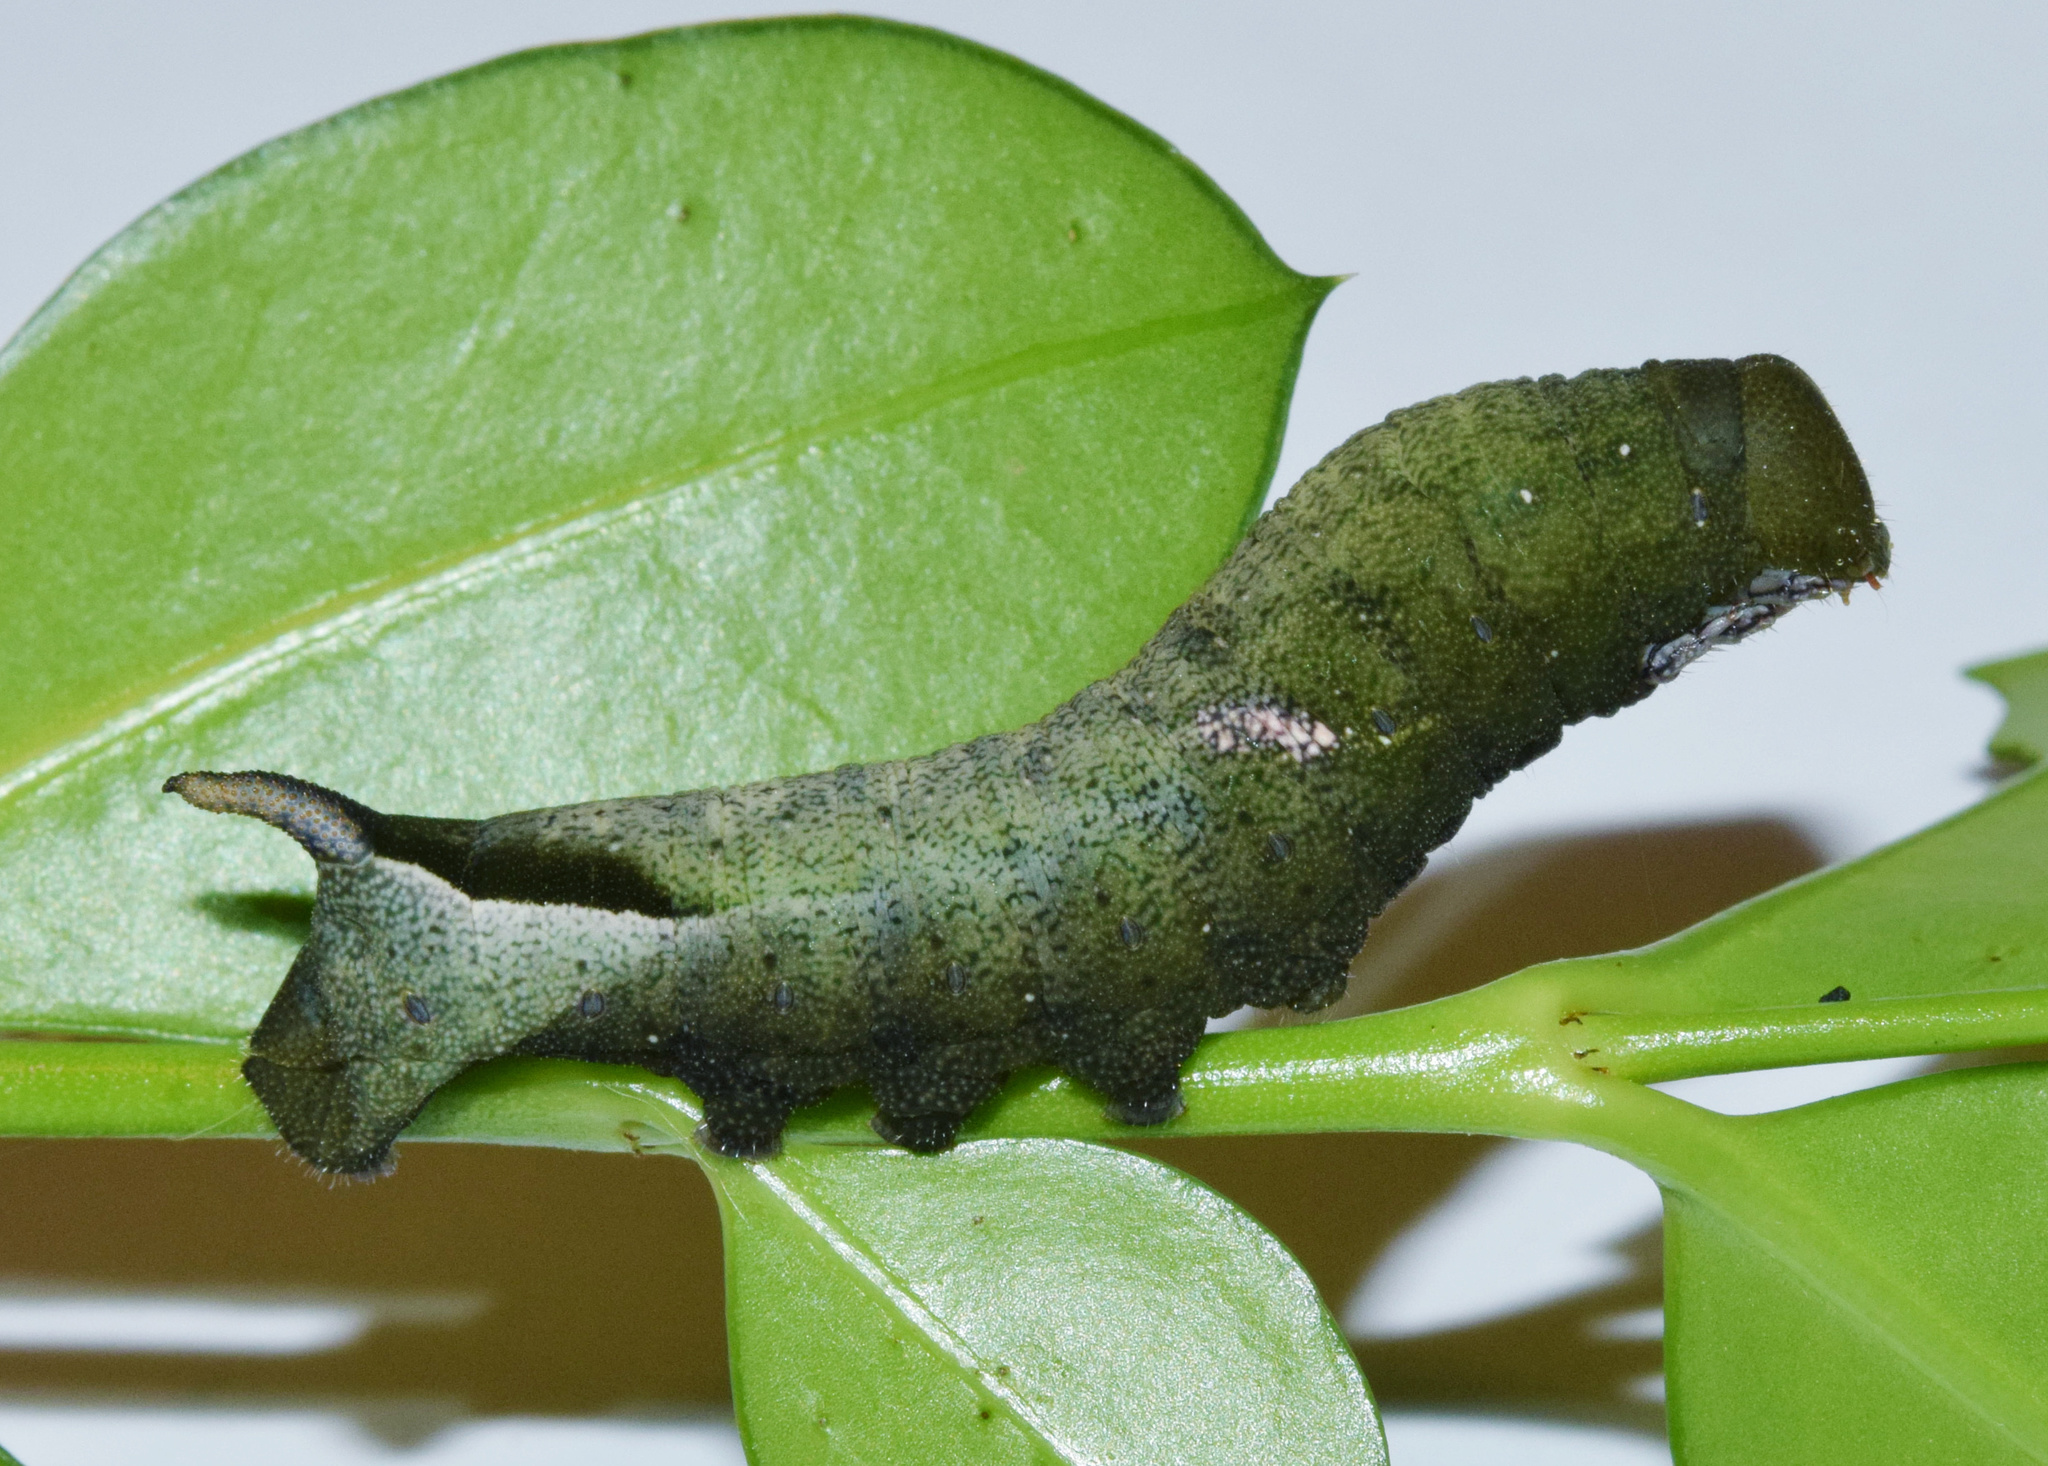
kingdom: Animalia
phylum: Arthropoda
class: Insecta
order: Lepidoptera
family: Sphingidae
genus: Nephele
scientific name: Nephele vau
